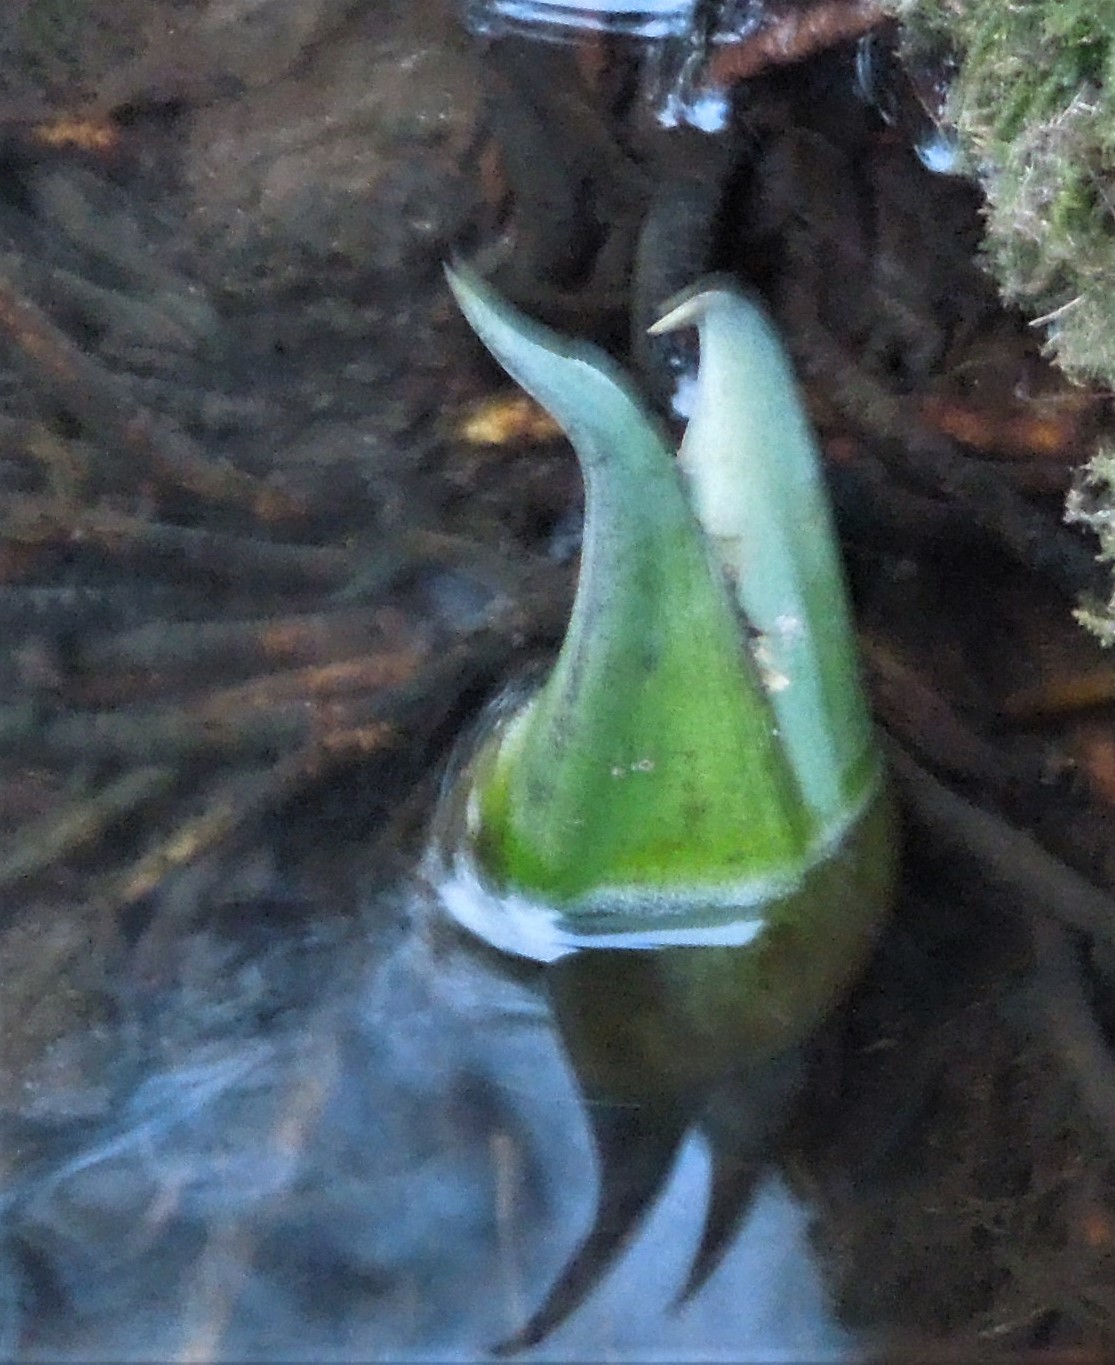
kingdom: Plantae
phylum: Tracheophyta
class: Liliopsida
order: Alismatales
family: Araceae
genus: Symplocarpus
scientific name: Symplocarpus foetidus
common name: Eastern skunk cabbage
